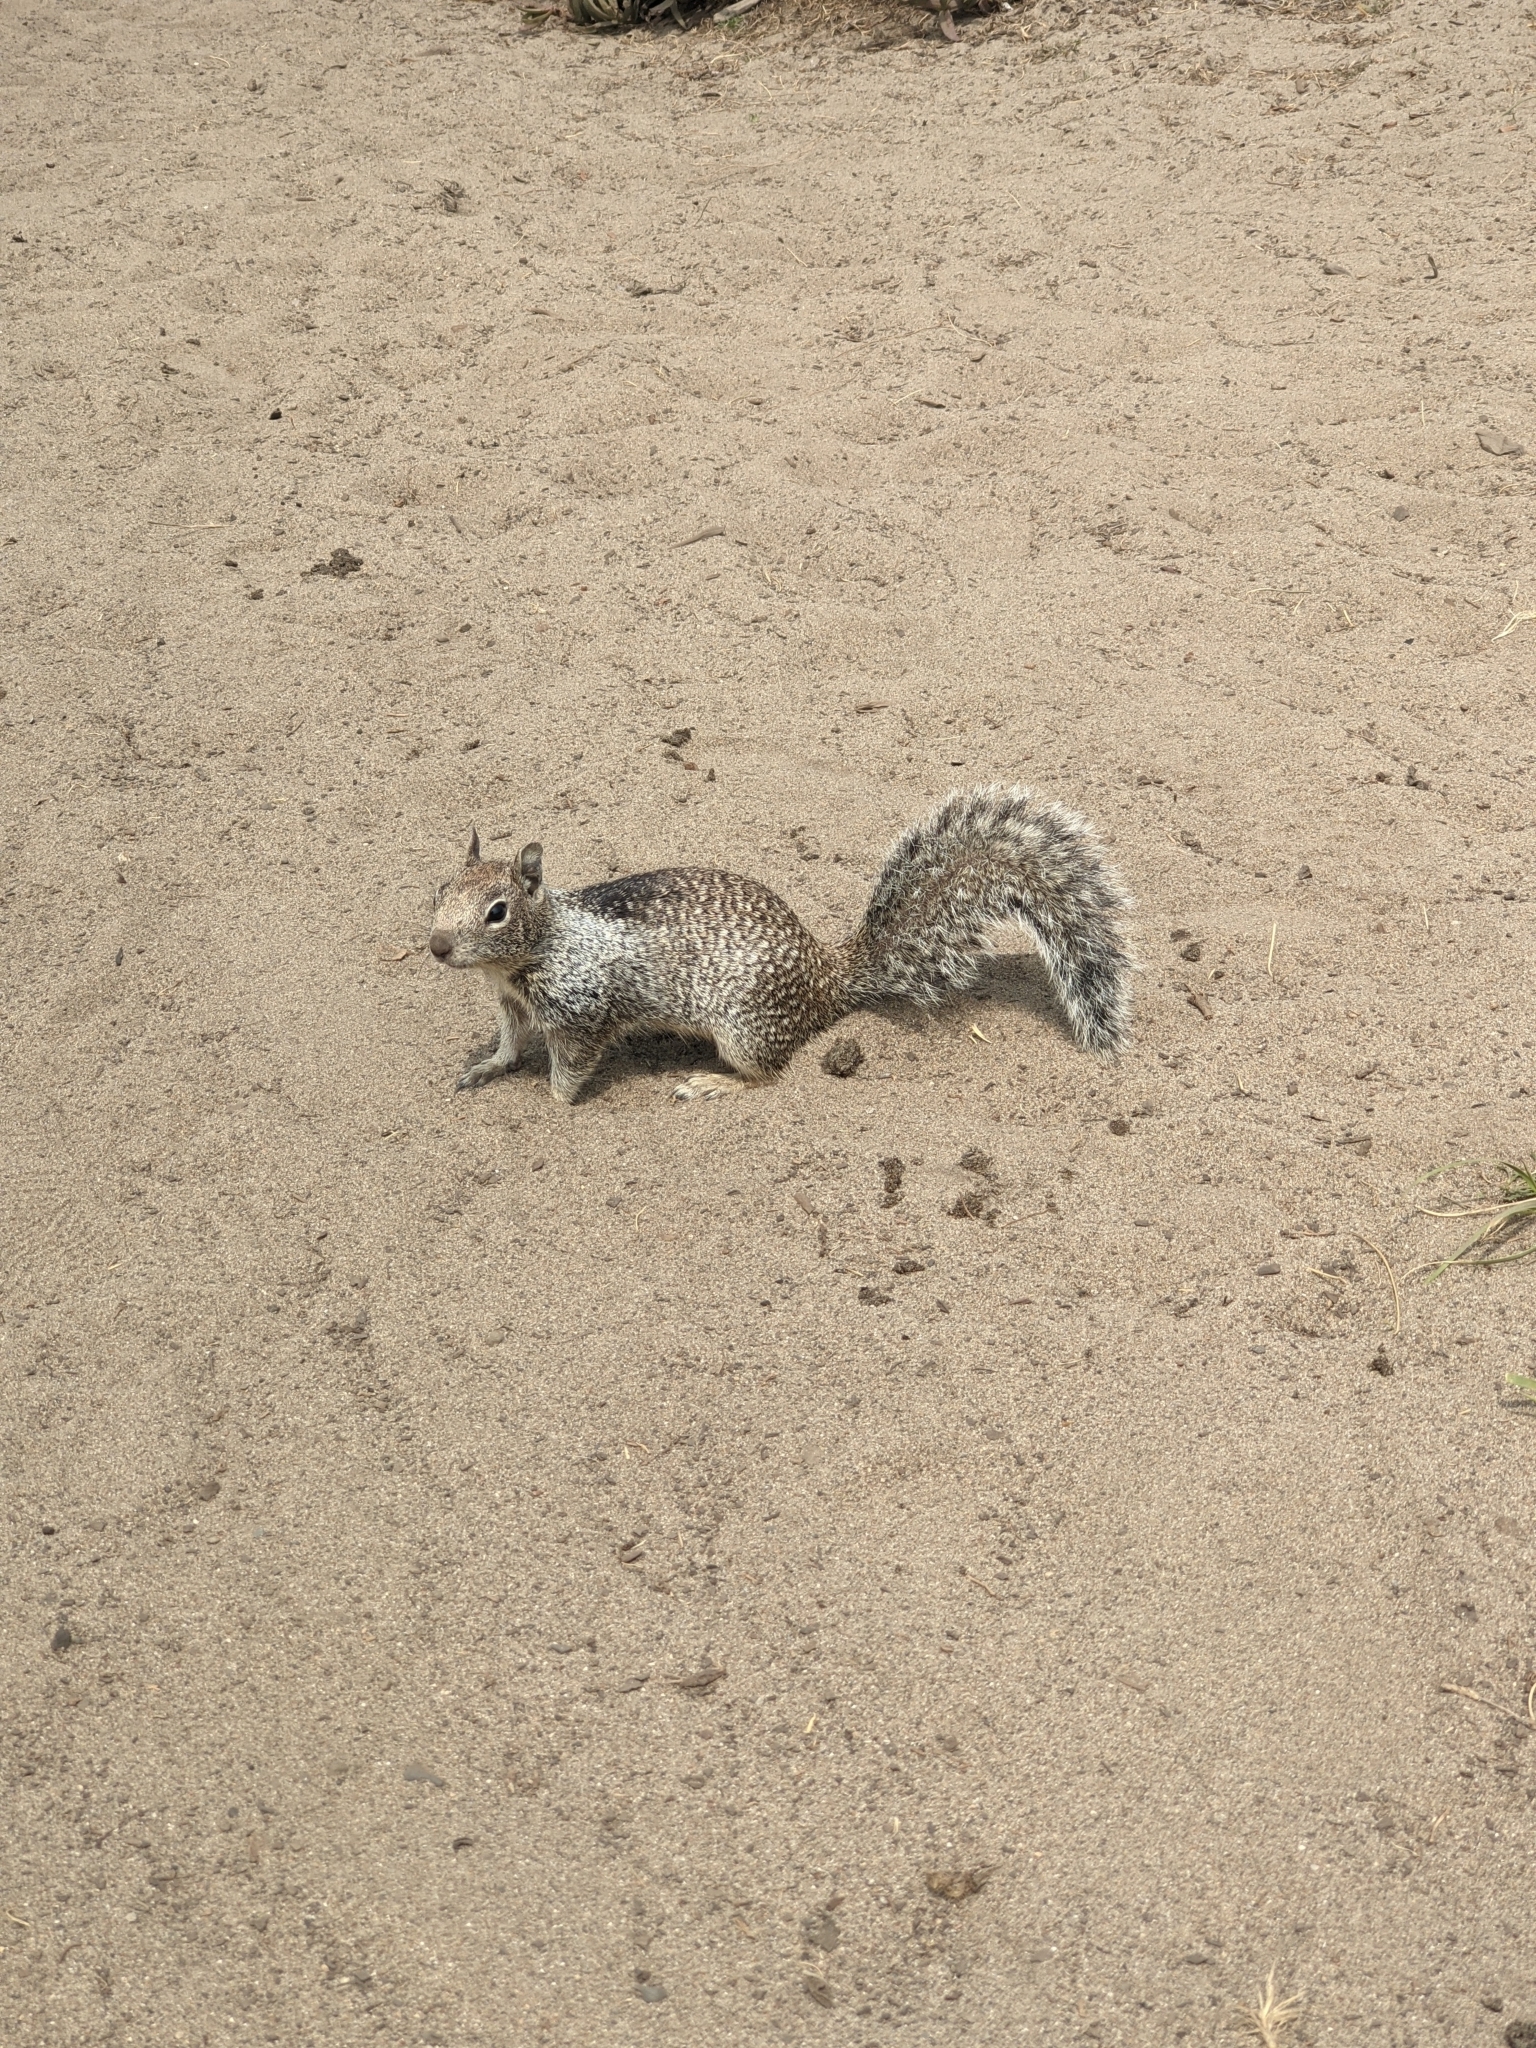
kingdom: Animalia
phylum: Chordata
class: Mammalia
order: Rodentia
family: Sciuridae
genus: Otospermophilus
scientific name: Otospermophilus beecheyi
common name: California ground squirrel
